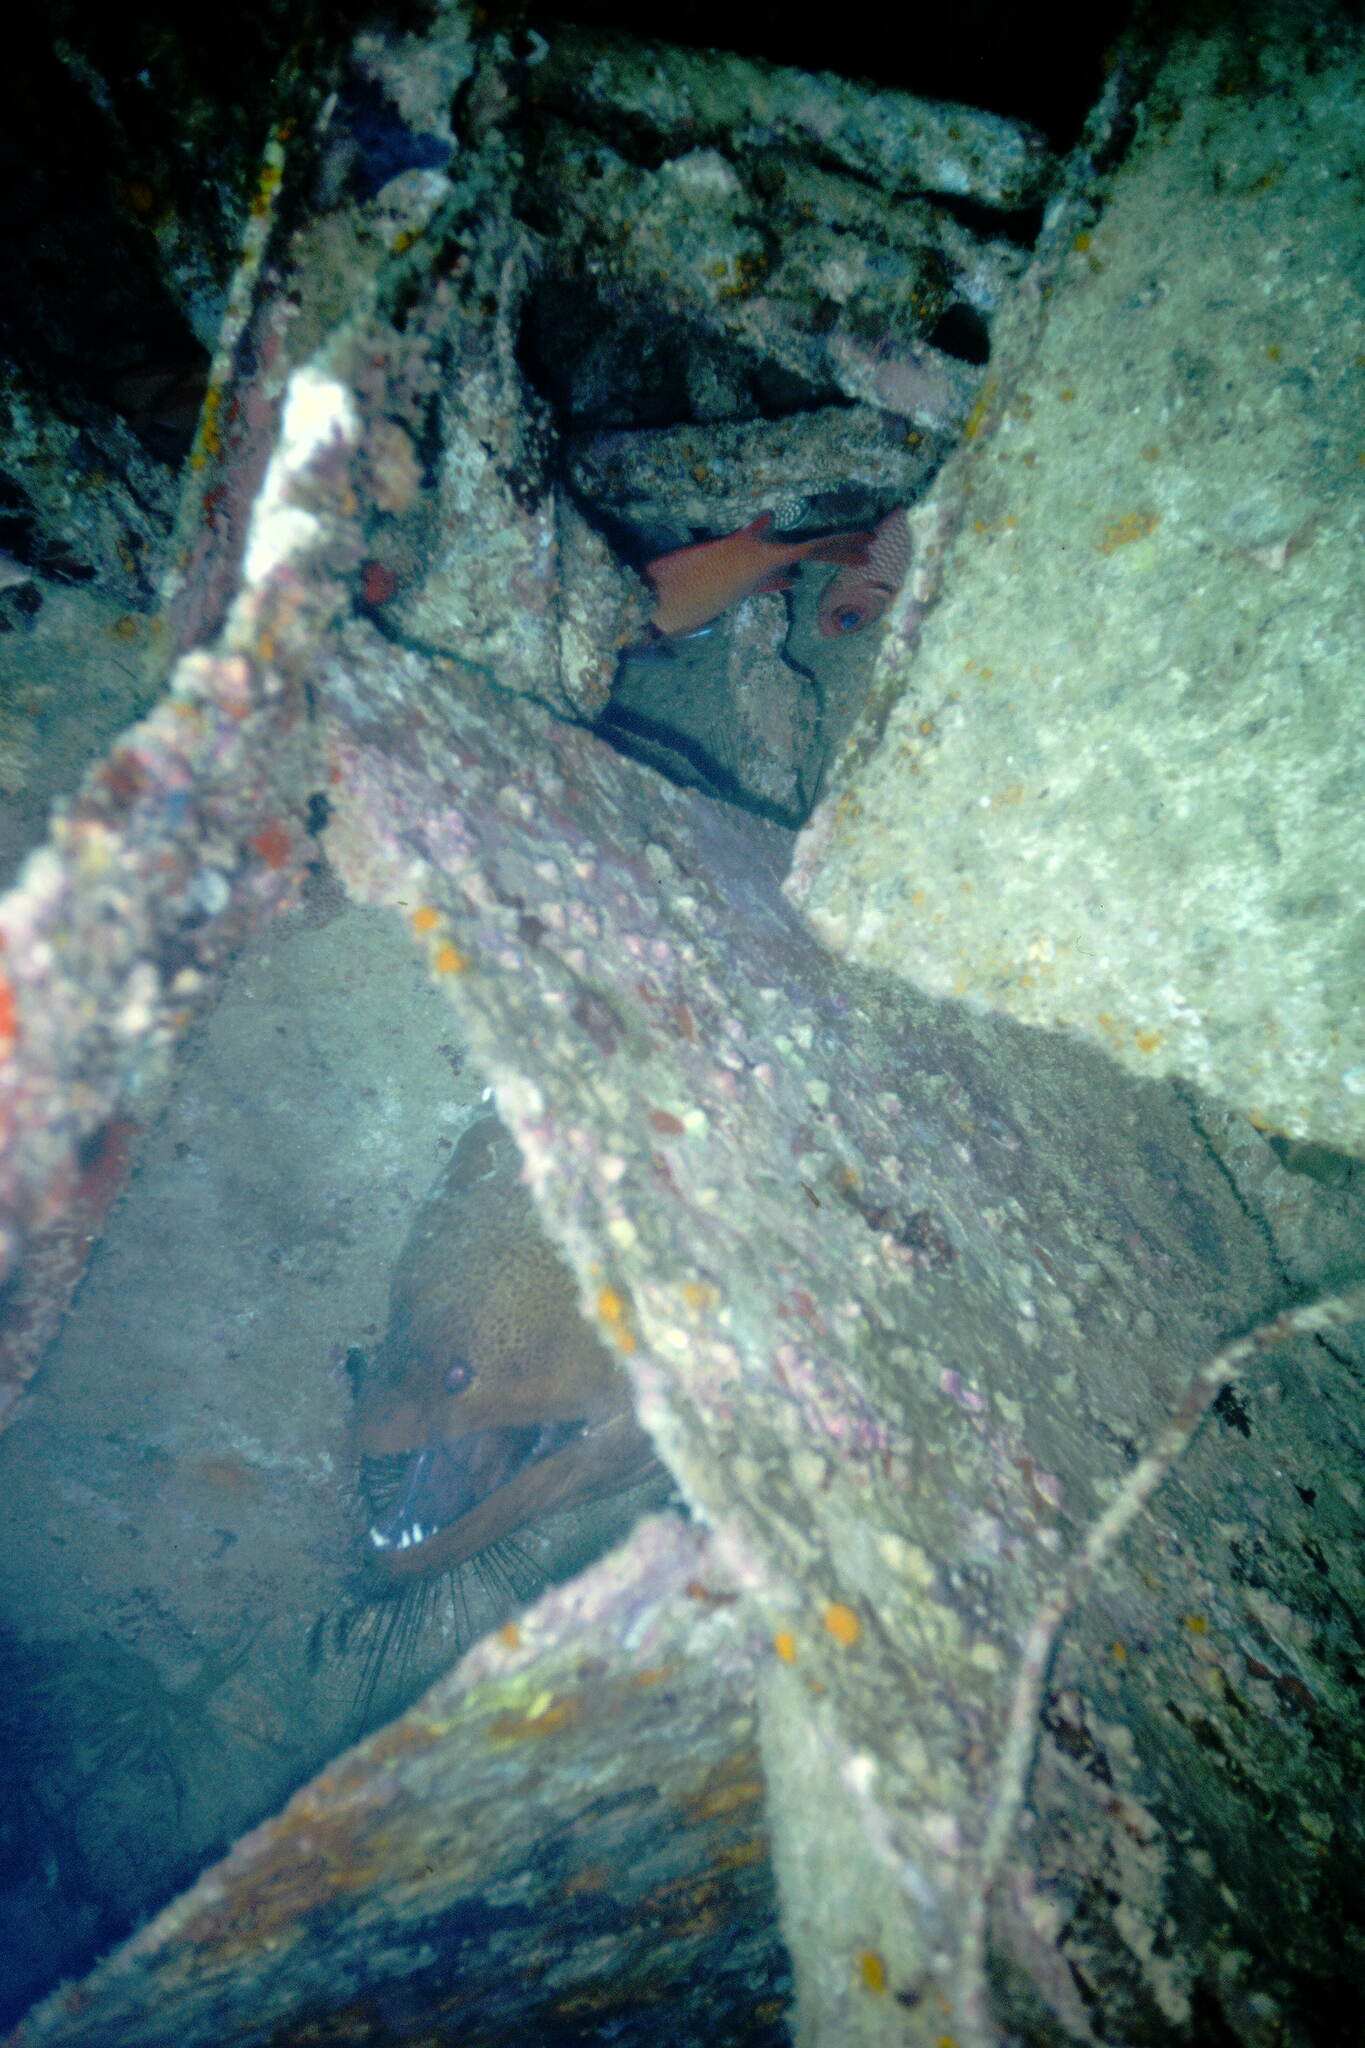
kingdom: Animalia
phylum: Chordata
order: Anguilliformes
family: Muraenidae
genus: Gymnothorax
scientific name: Gymnothorax javanicus
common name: Giant moray
